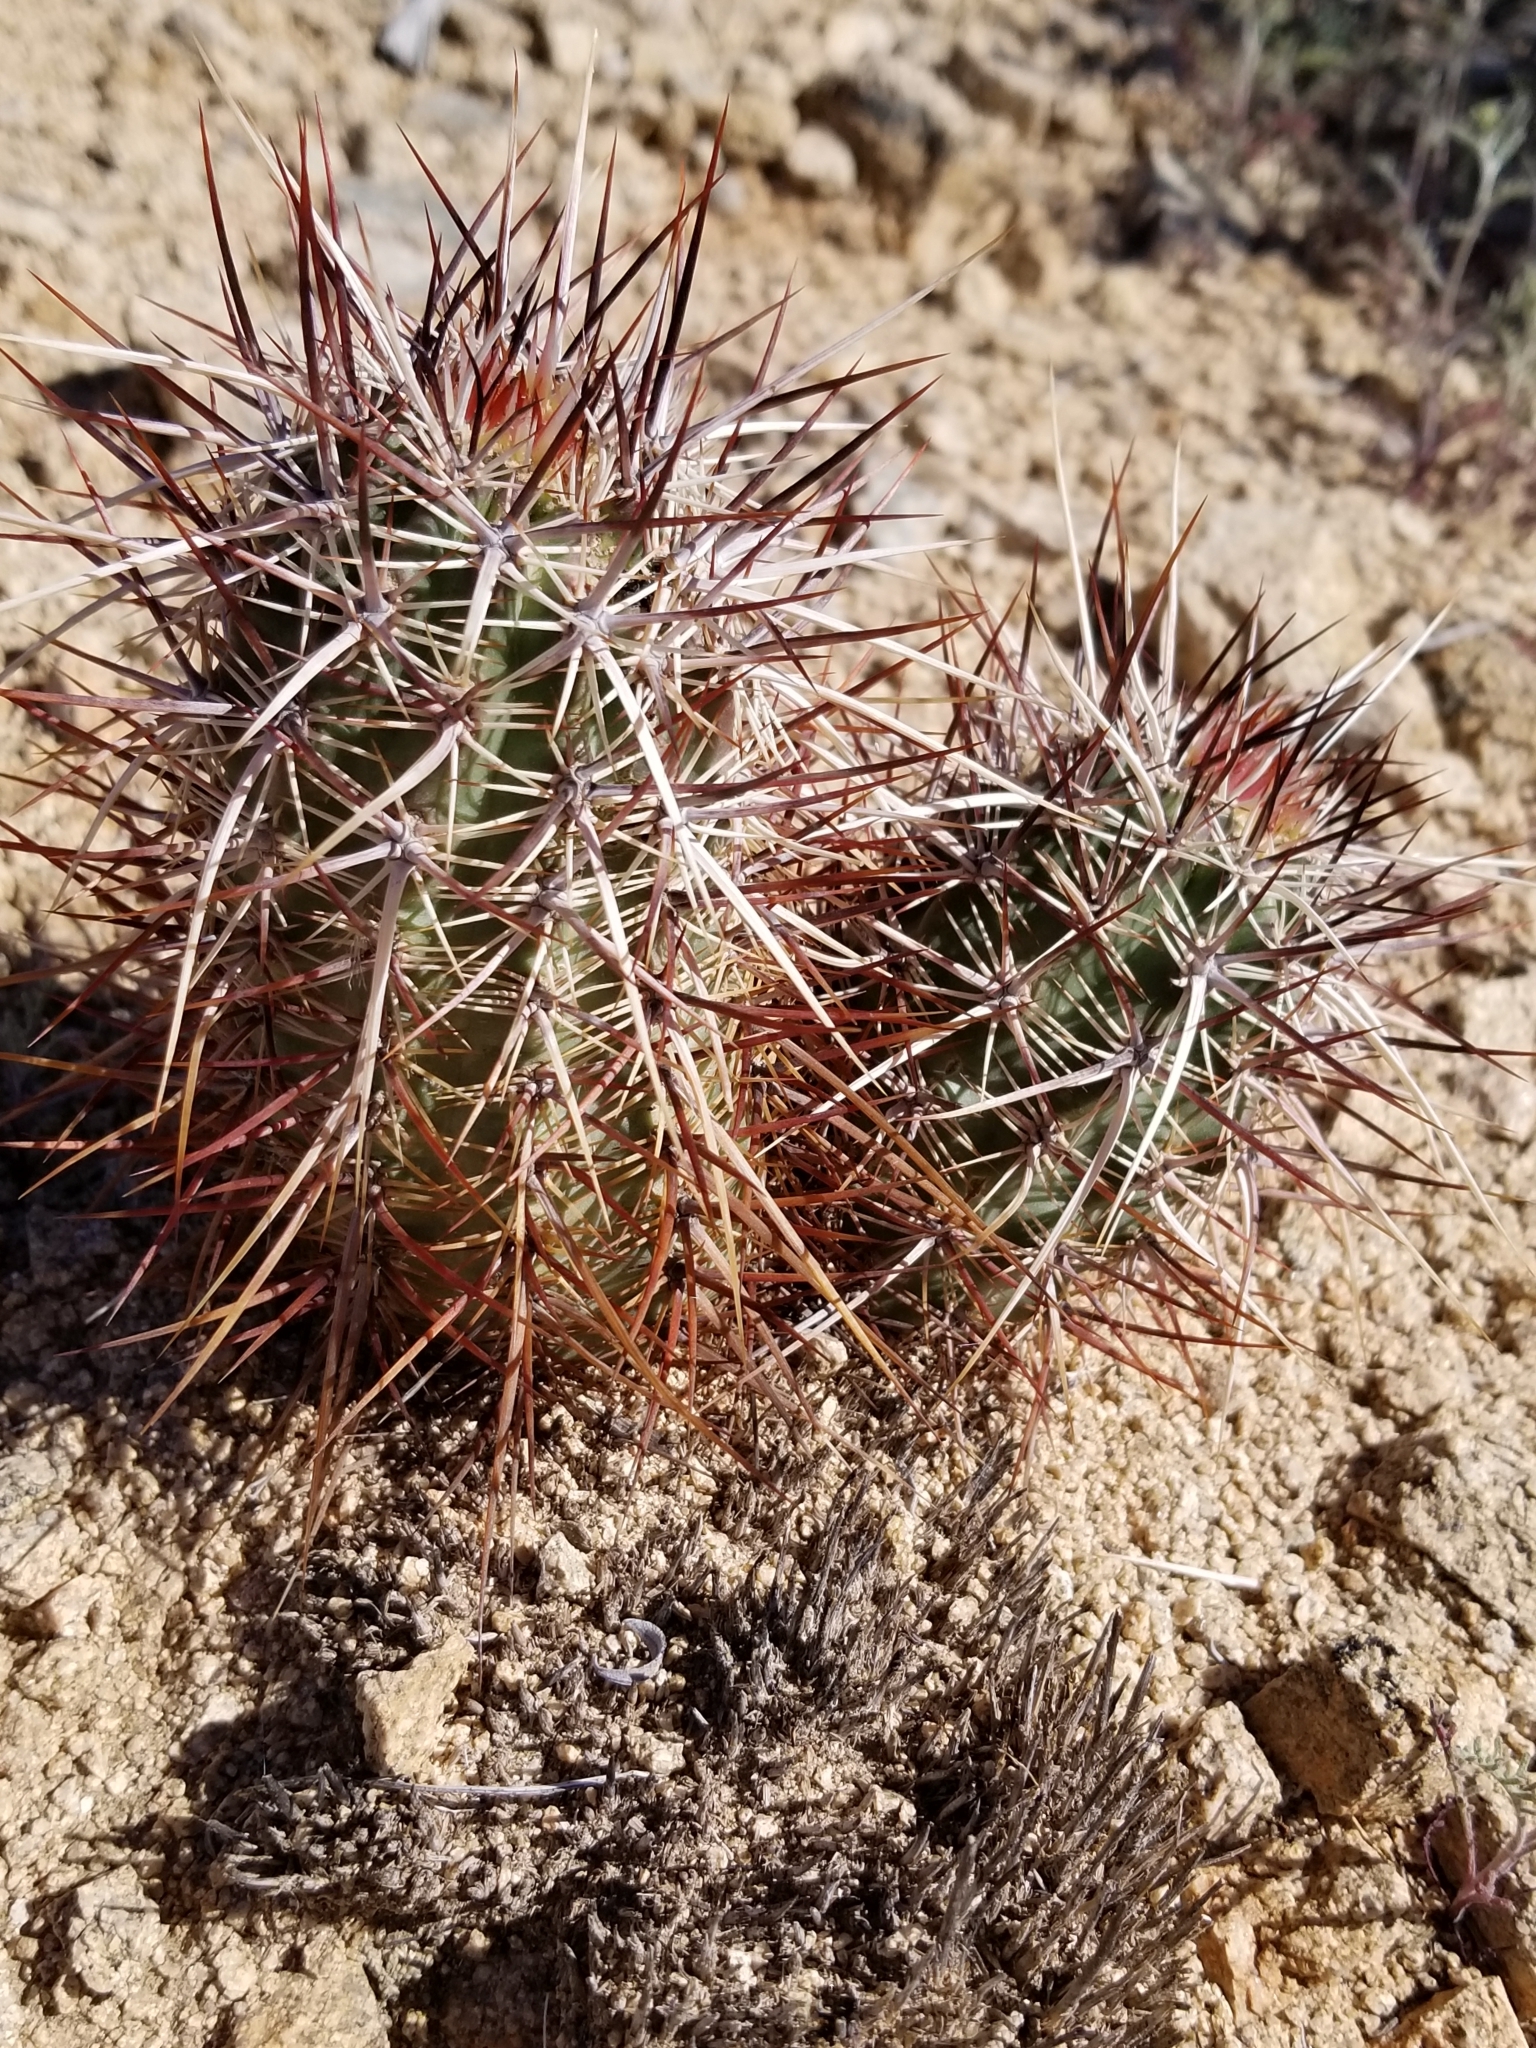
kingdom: Plantae
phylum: Tracheophyta
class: Magnoliopsida
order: Caryophyllales
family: Cactaceae
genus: Echinocereus
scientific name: Echinocereus engelmannii
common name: Engelmann's hedgehog cactus
